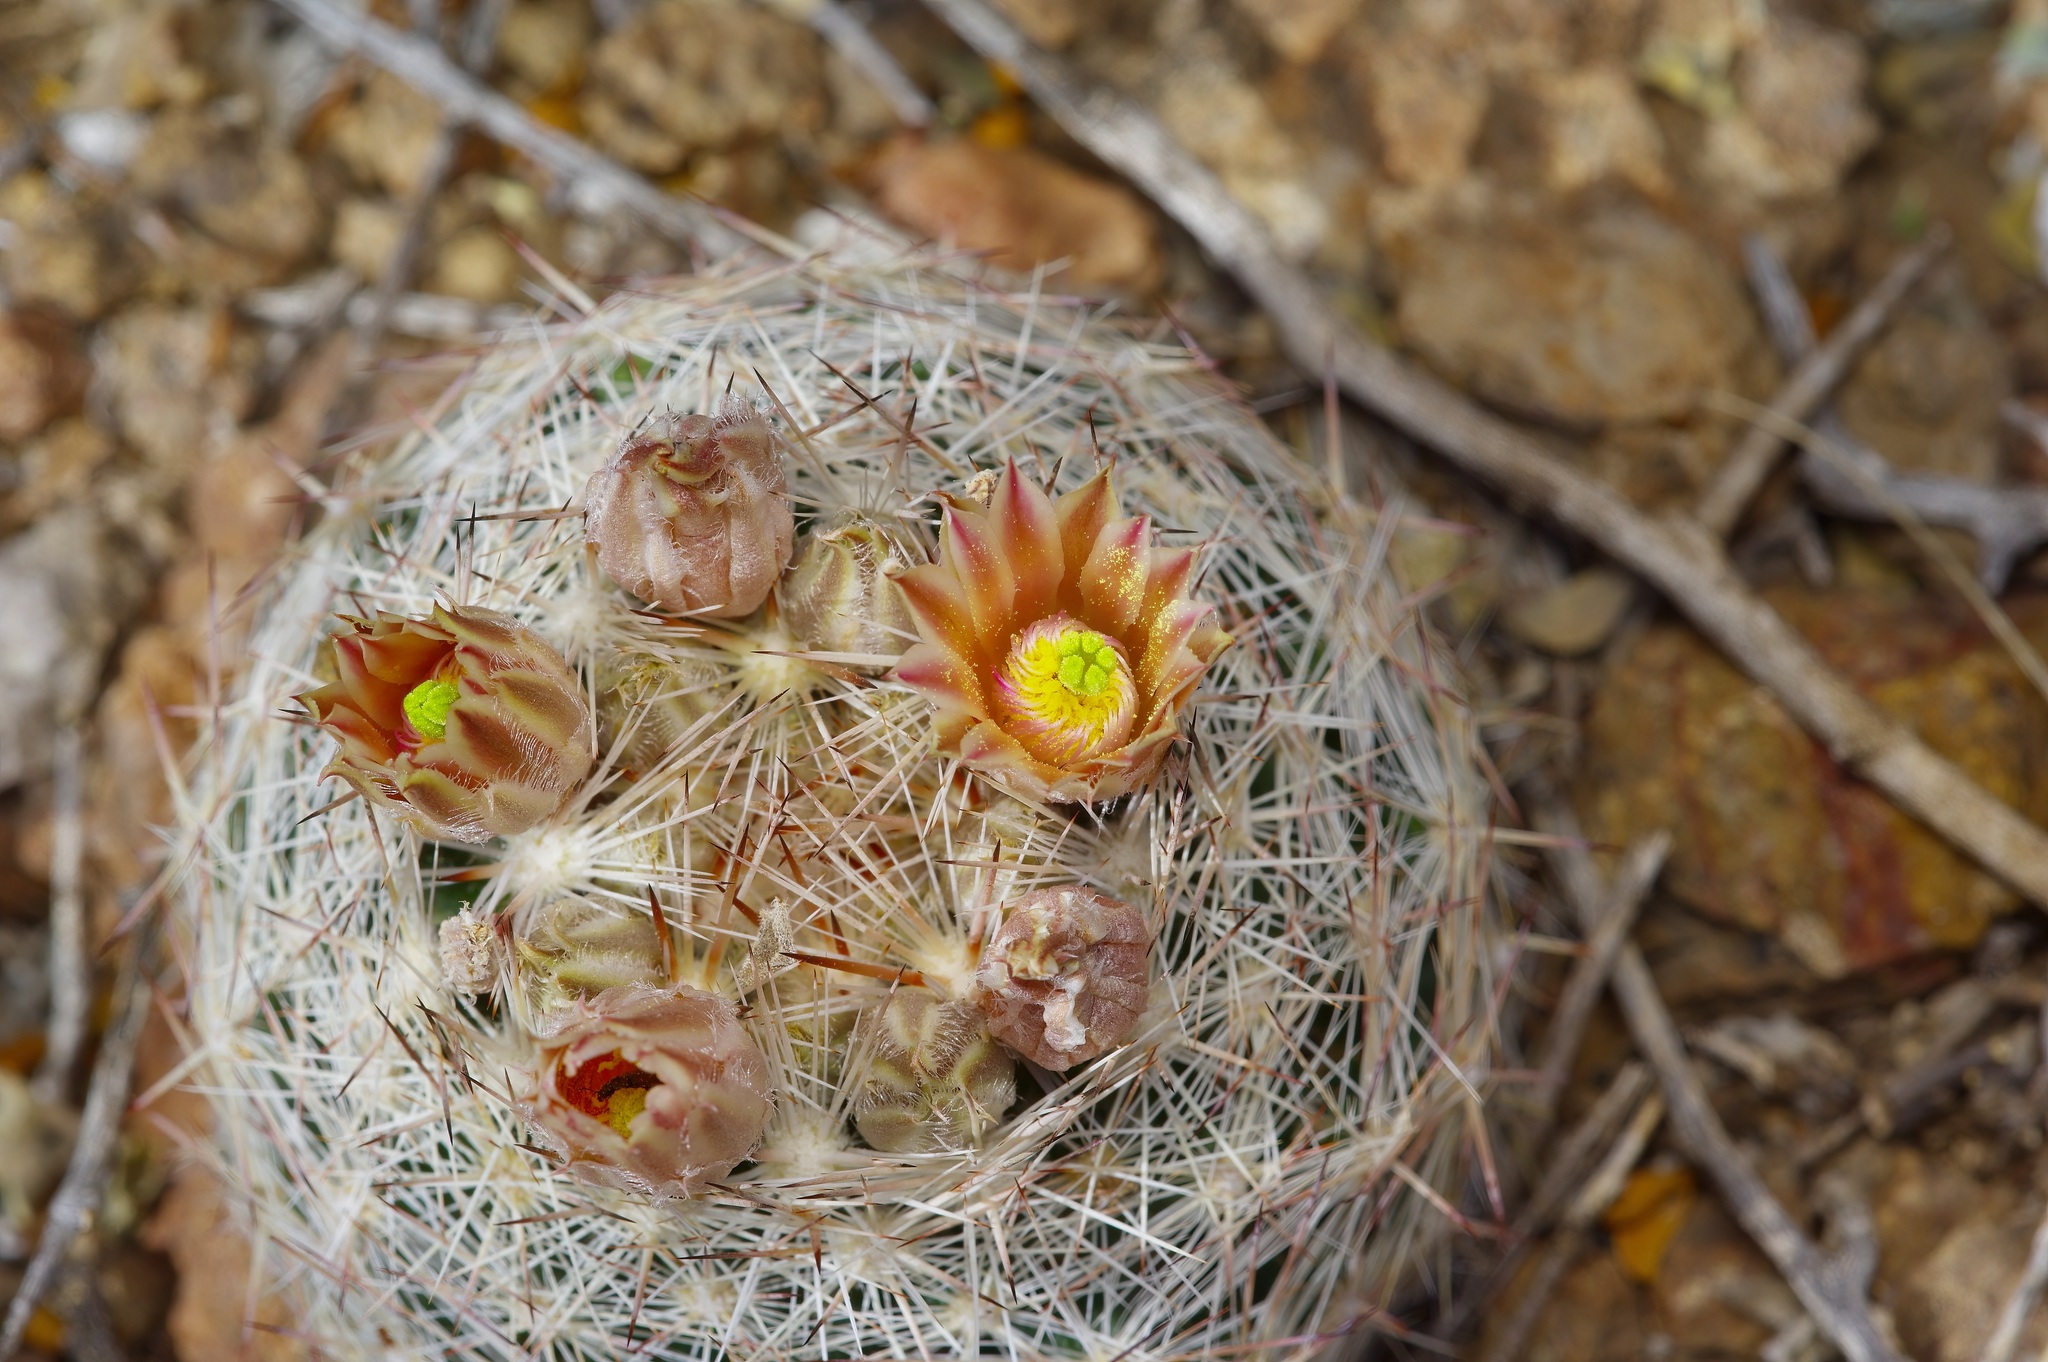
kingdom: Plantae
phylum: Tracheophyta
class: Magnoliopsida
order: Caryophyllales
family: Cactaceae
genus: Pelecyphora
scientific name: Pelecyphora dasyacantha
